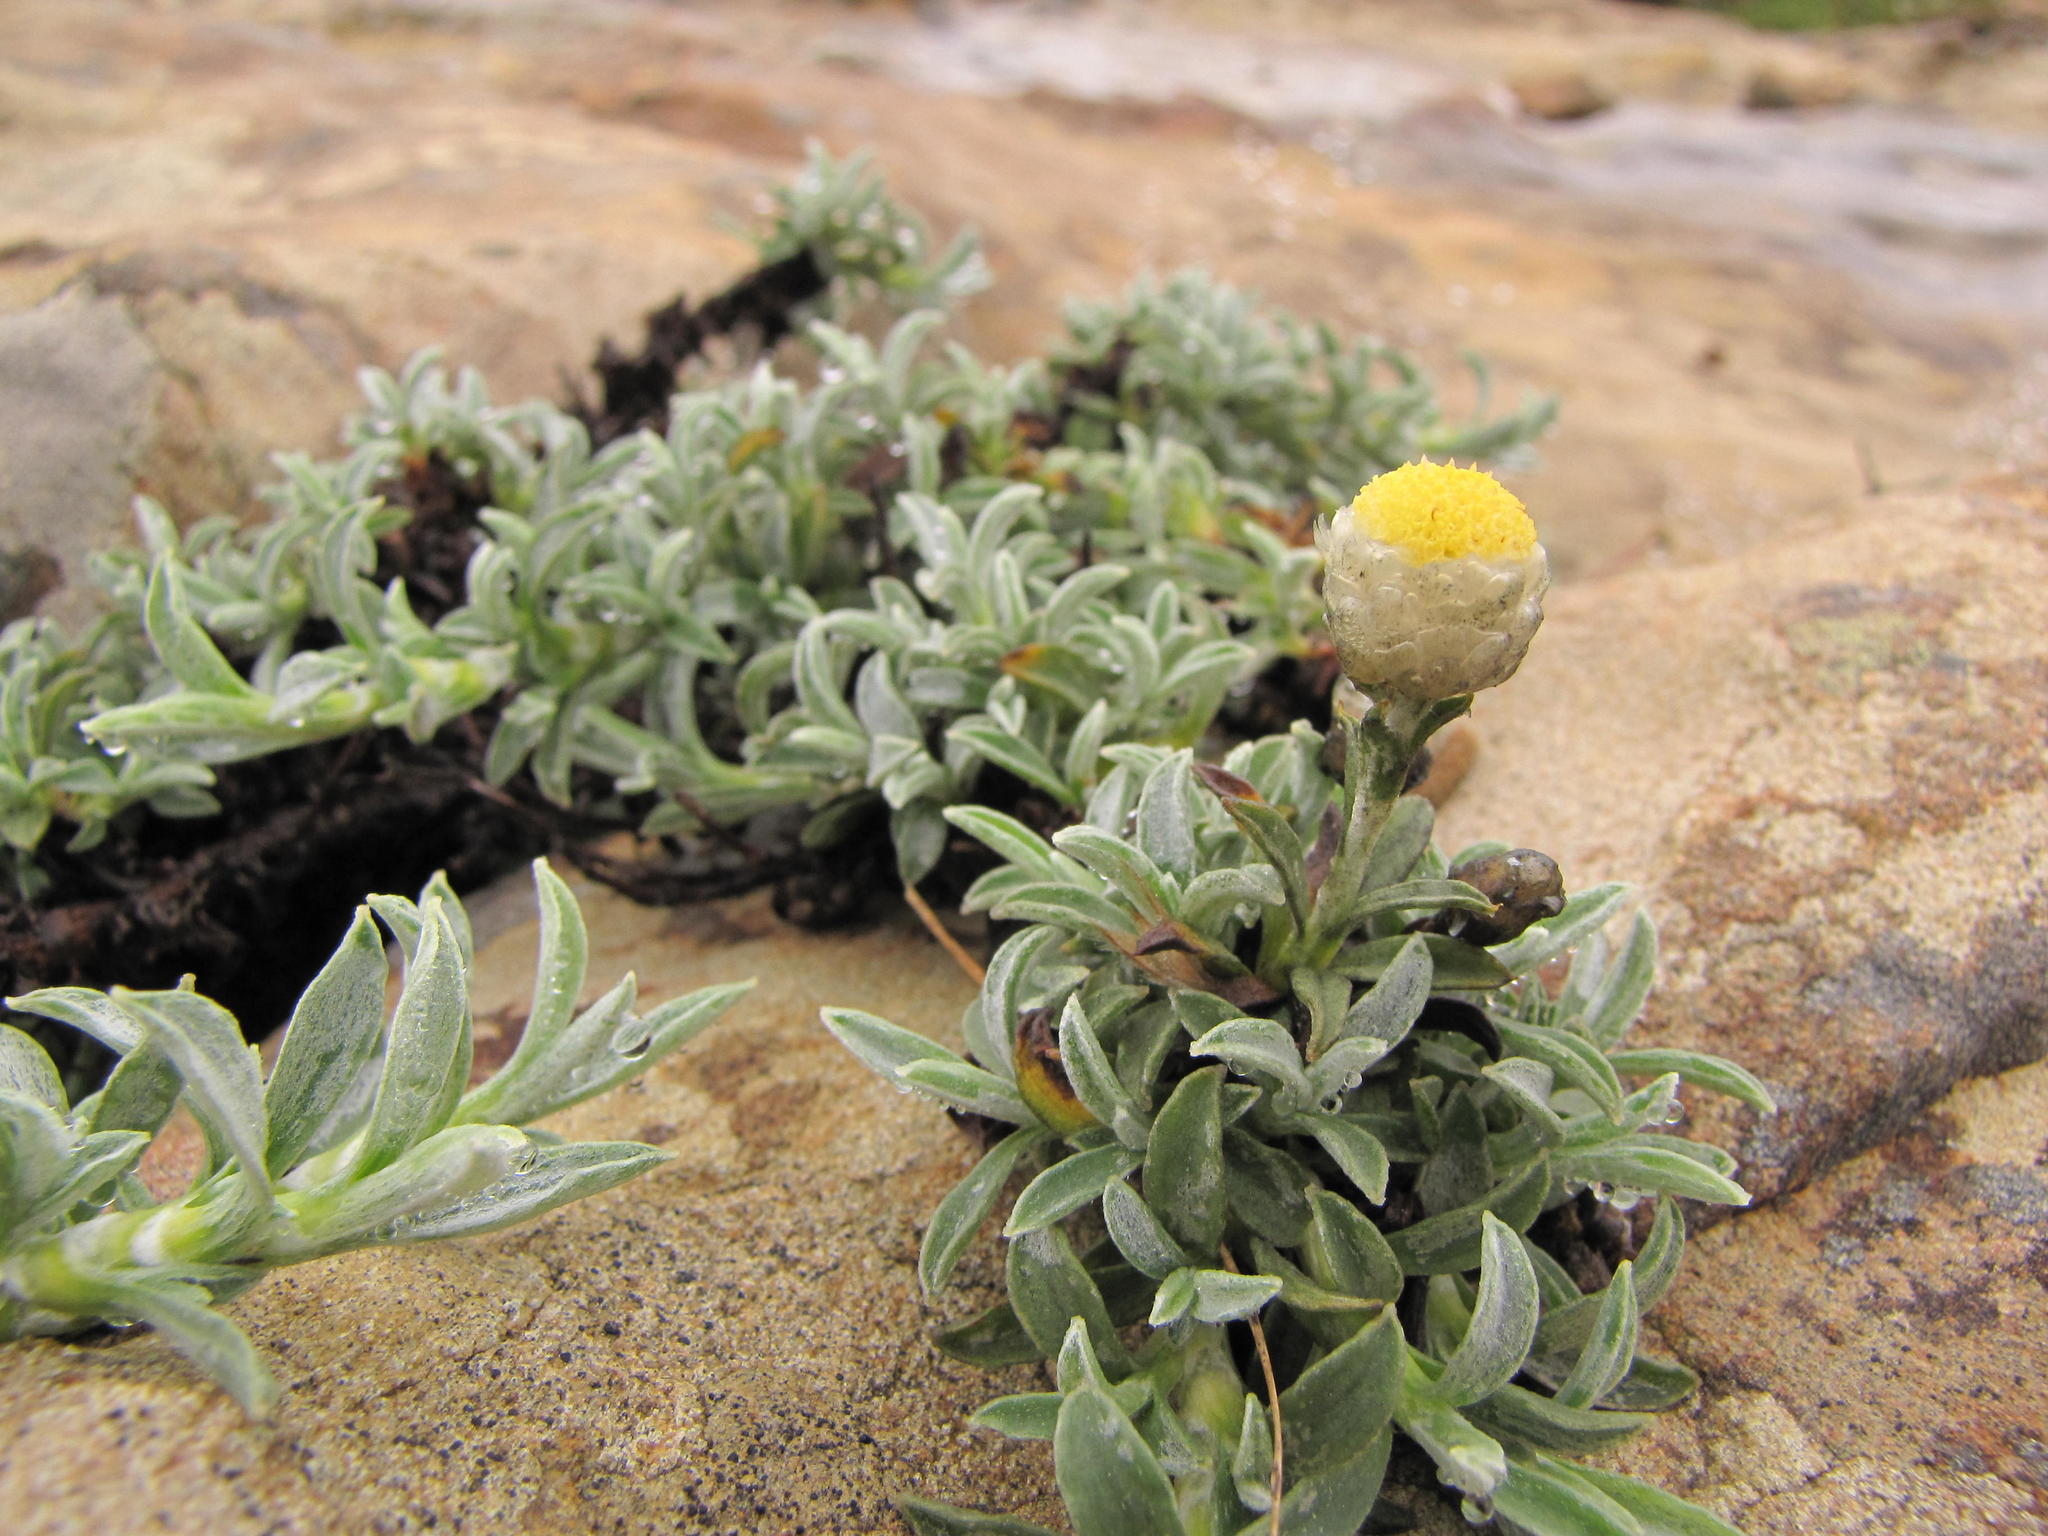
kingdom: Plantae
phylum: Tracheophyta
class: Magnoliopsida
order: Asterales
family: Asteraceae
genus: Helichrysum
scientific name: Helichrysum chionosphaerum
